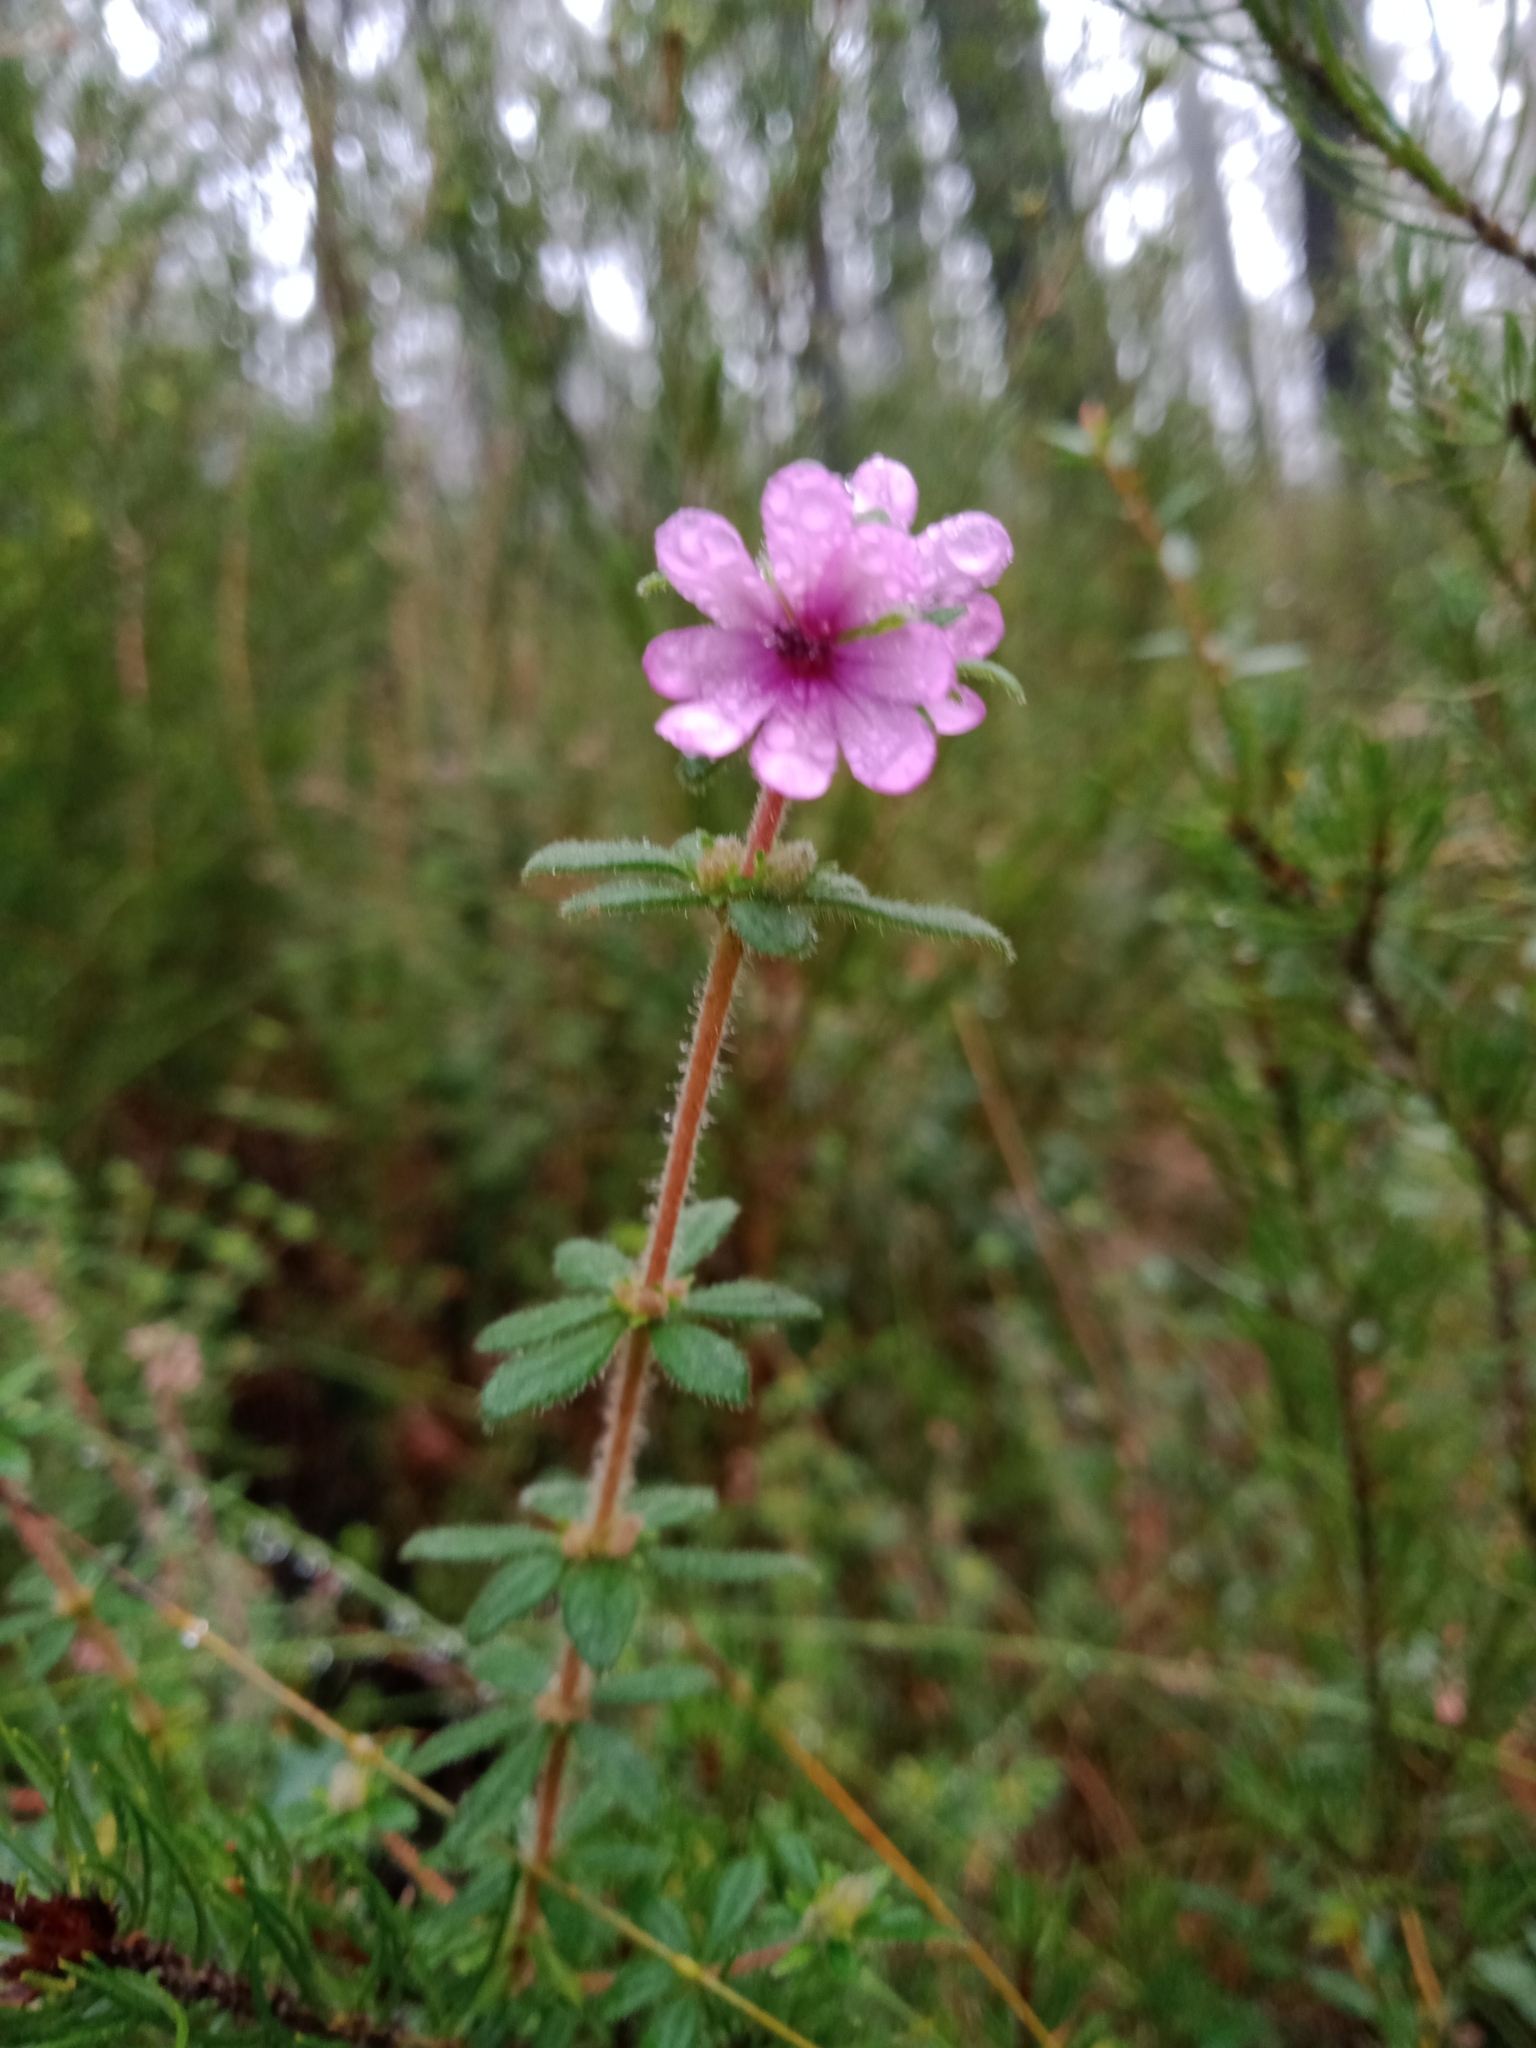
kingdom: Plantae
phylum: Tracheophyta
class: Magnoliopsida
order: Oxalidales
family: Cunoniaceae
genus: Bauera
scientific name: Bauera sessiliflora
